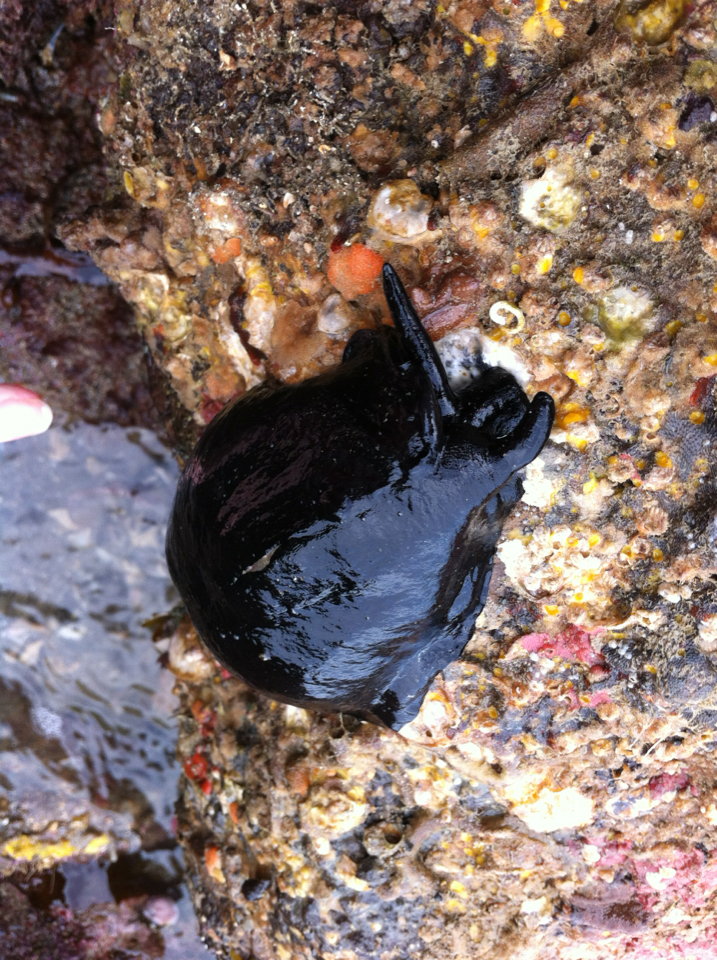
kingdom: Animalia
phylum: Mollusca
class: Gastropoda
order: Lepetellida
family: Fissurellidae
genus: Scutus
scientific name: Scutus breviculus
